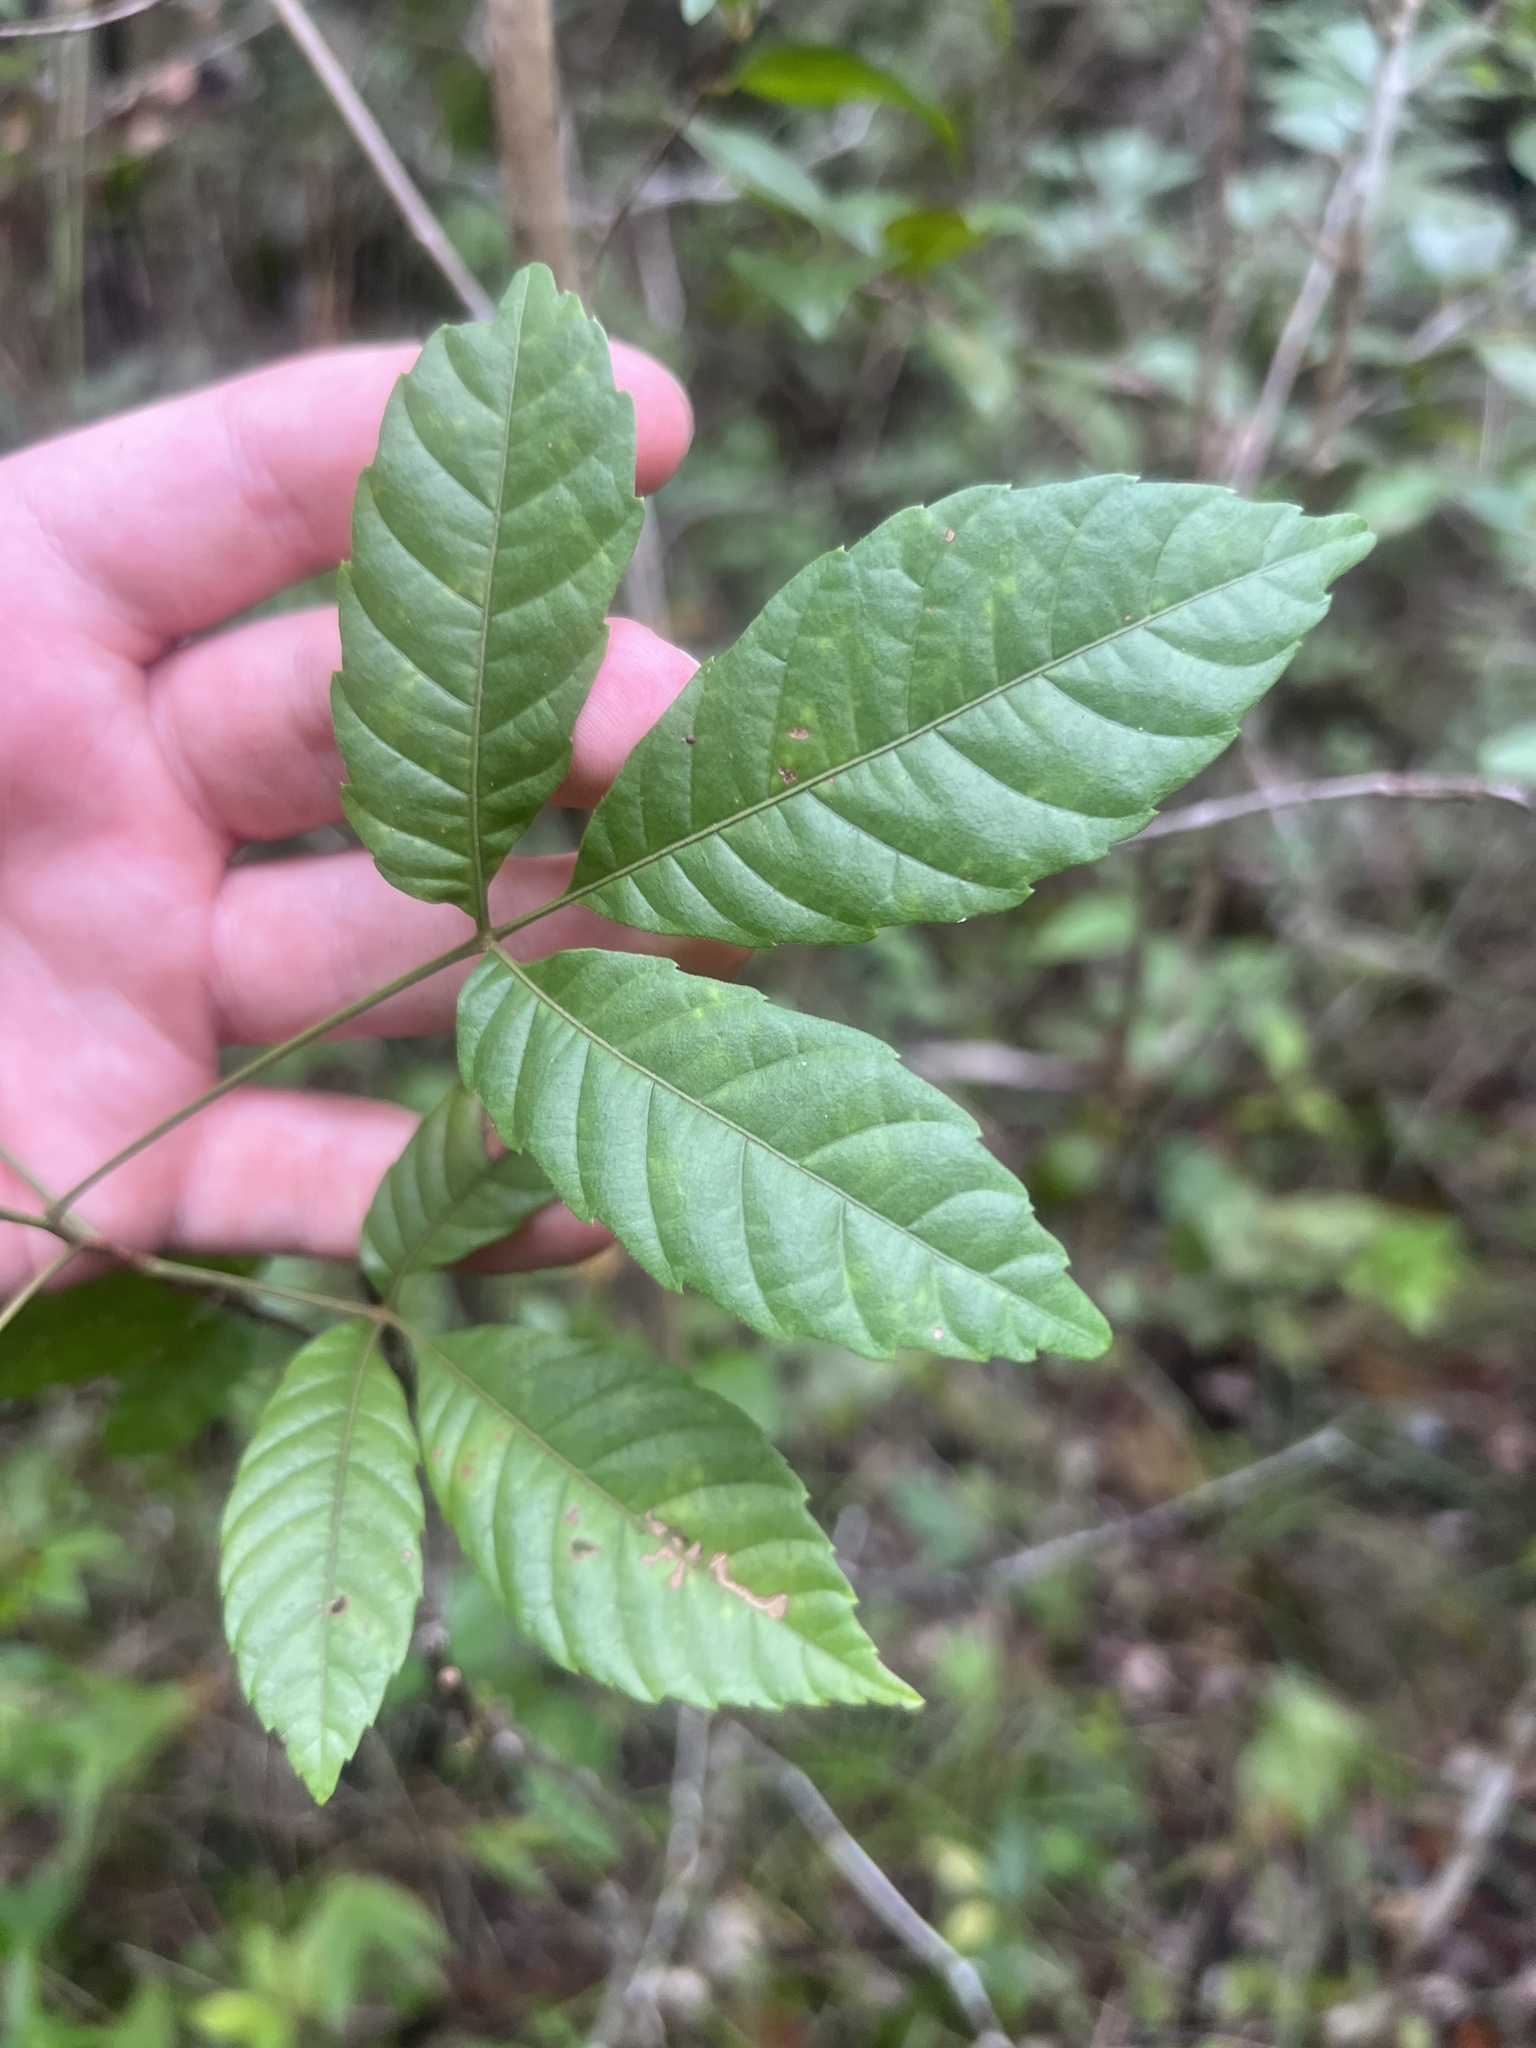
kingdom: Plantae
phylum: Tracheophyta
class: Magnoliopsida
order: Sapindales
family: Sapindaceae
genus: Allophylus
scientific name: Allophylus cominia
